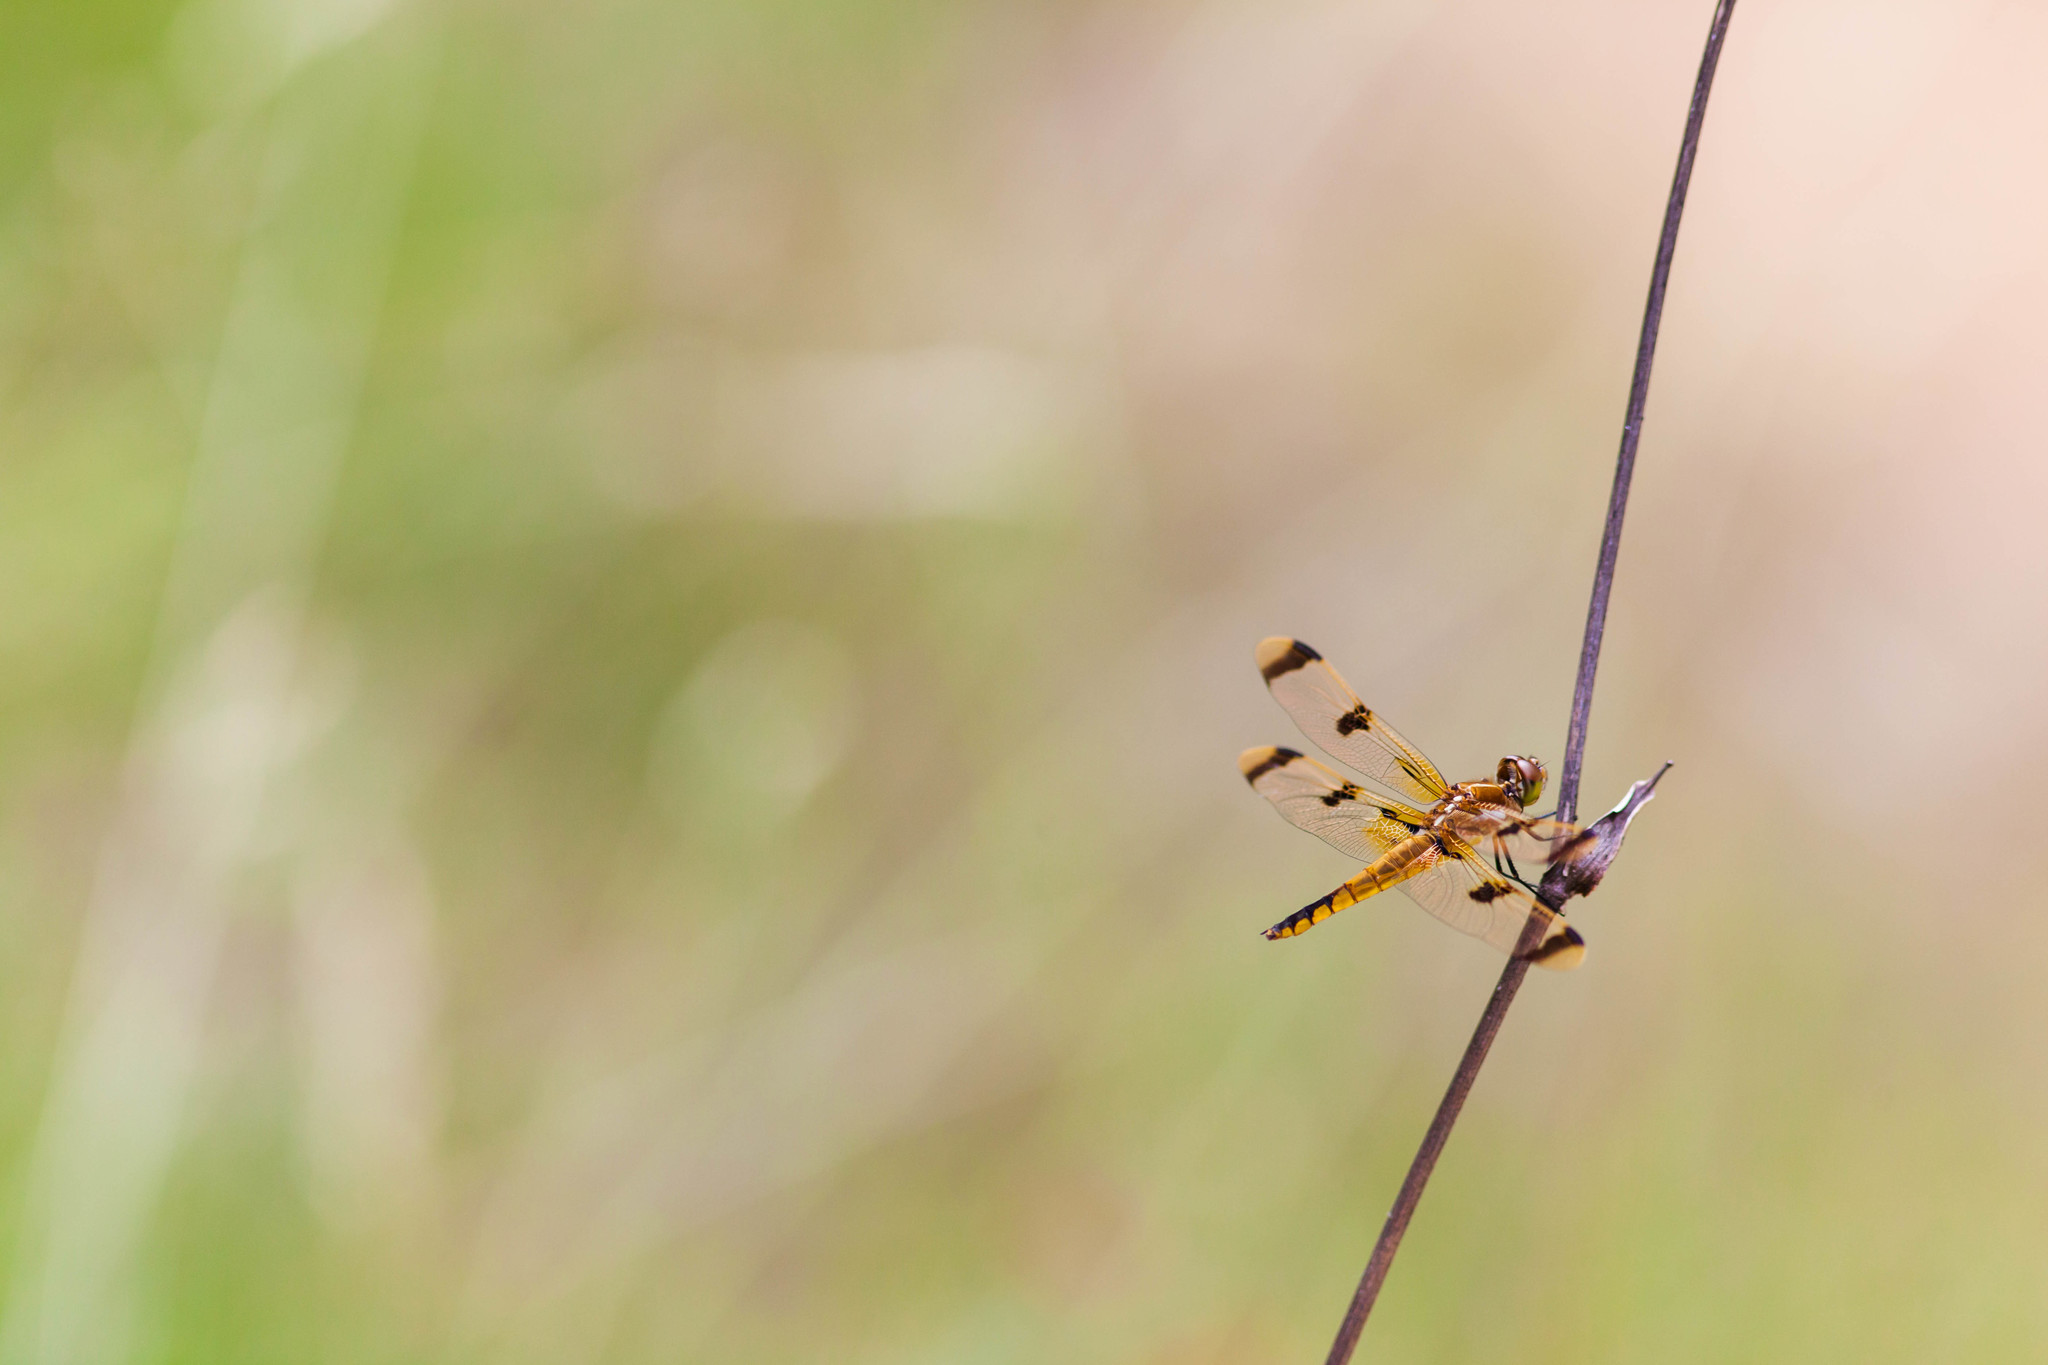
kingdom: Animalia
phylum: Arthropoda
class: Insecta
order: Odonata
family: Libellulidae
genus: Libellula
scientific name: Libellula semifasciata
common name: Painted skimmer
